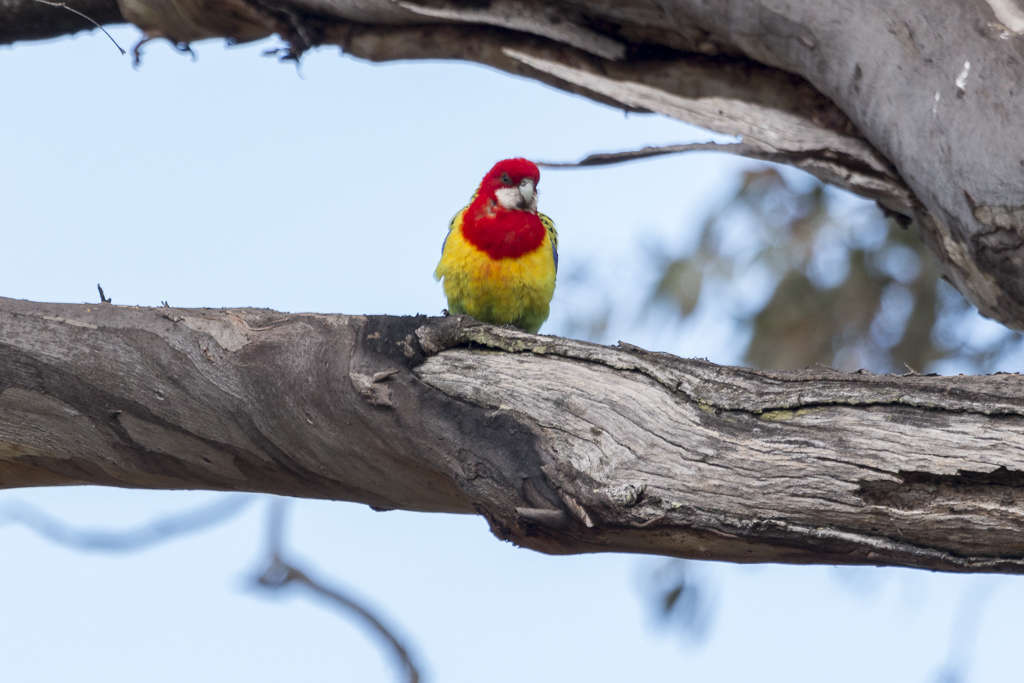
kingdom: Animalia
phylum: Chordata
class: Aves
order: Psittaciformes
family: Psittacidae
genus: Platycercus
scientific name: Platycercus eximius
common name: Eastern rosella
